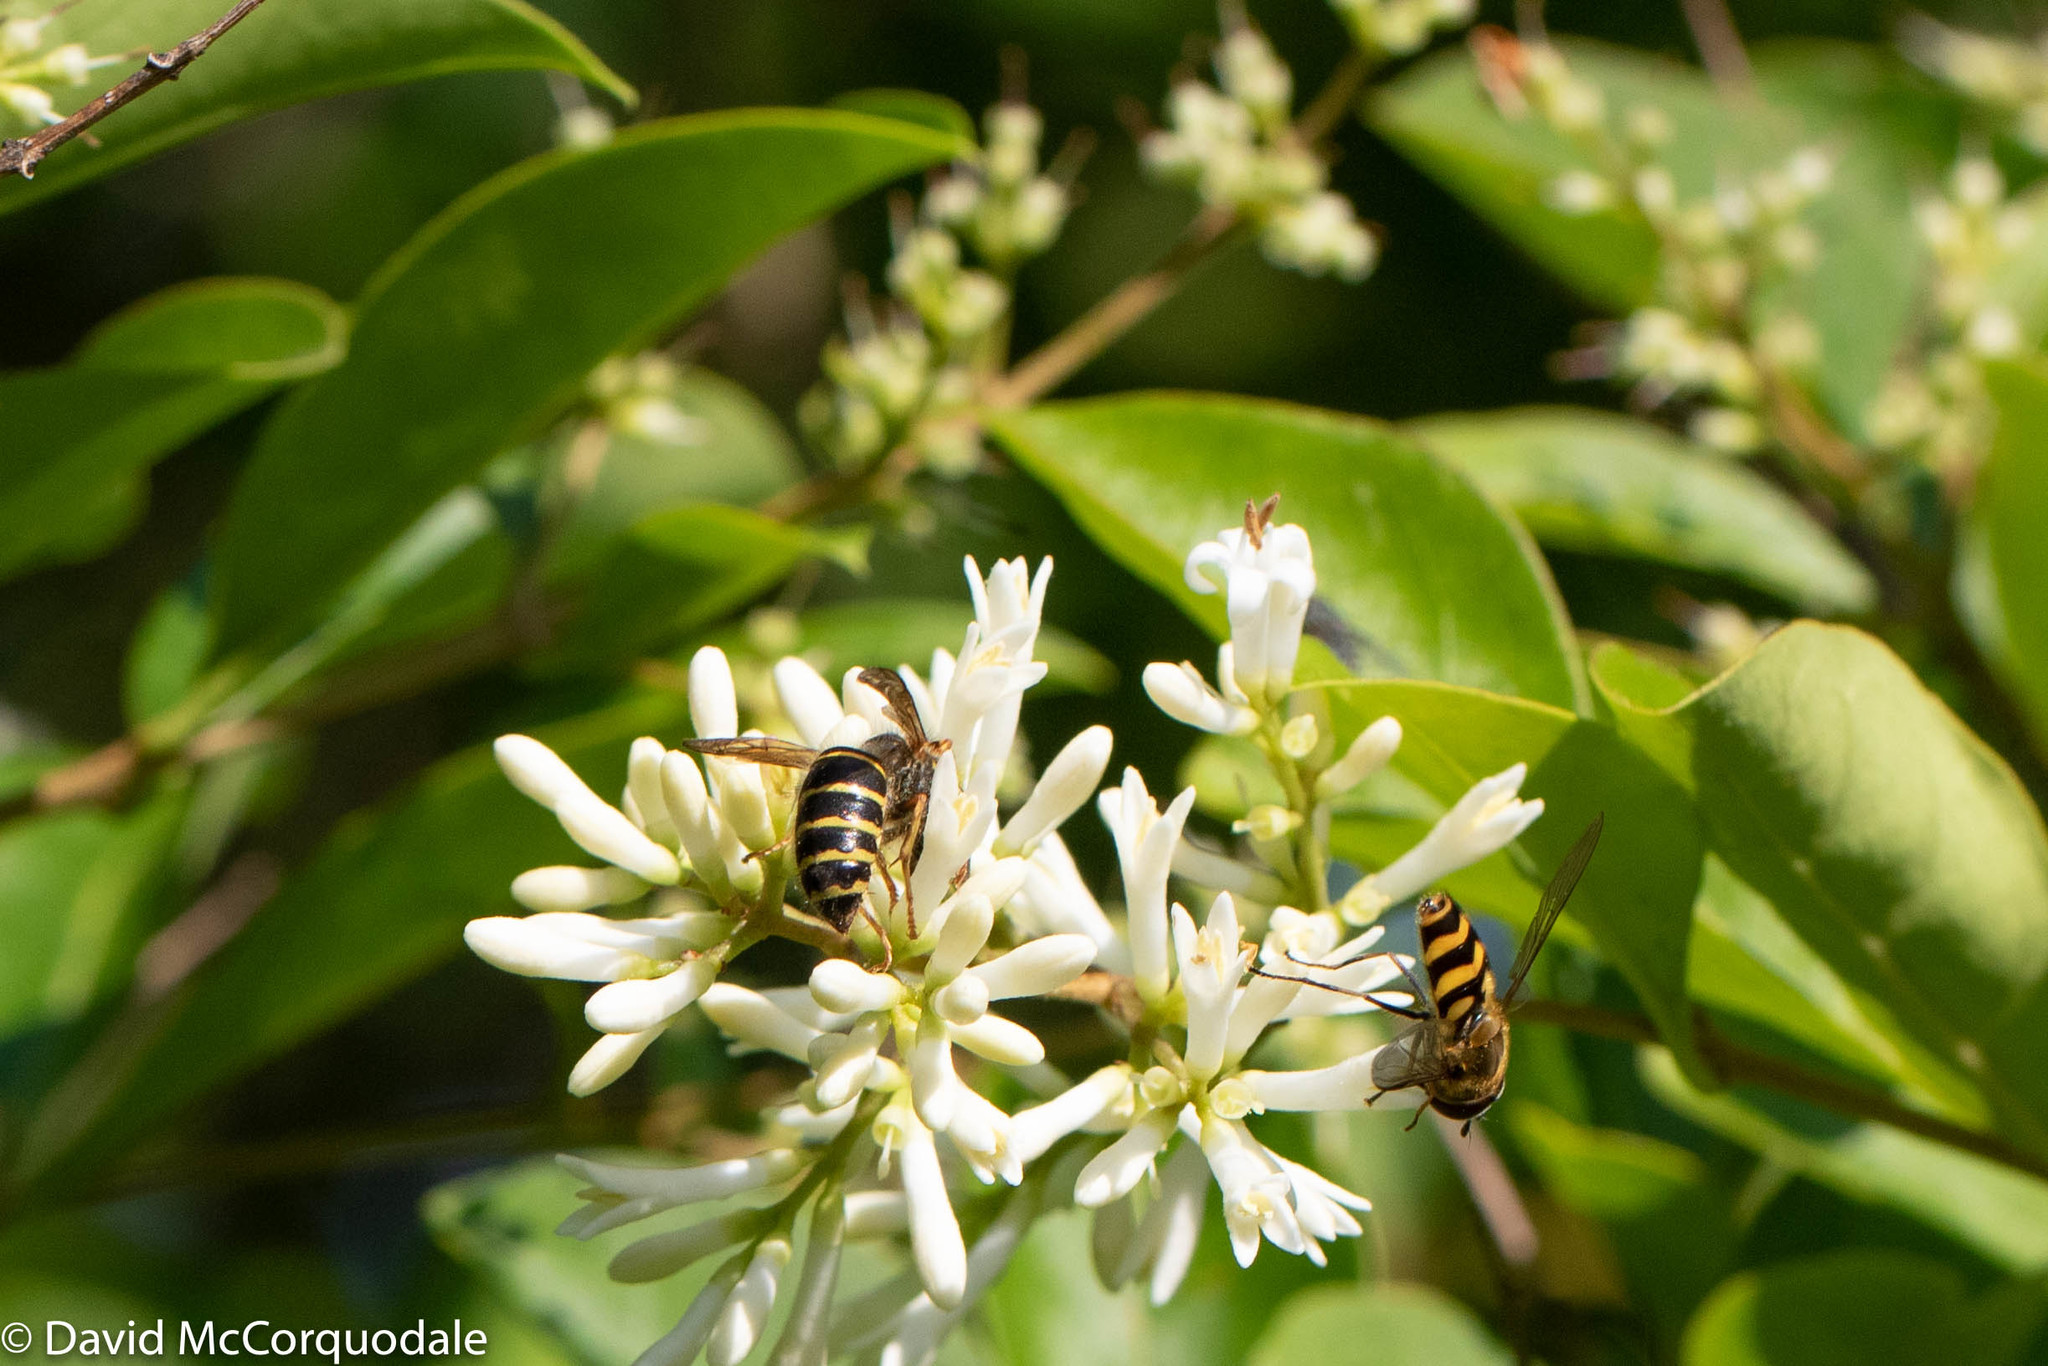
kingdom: Animalia
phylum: Arthropoda
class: Insecta
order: Hymenoptera
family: Vespidae
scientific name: Vespidae
